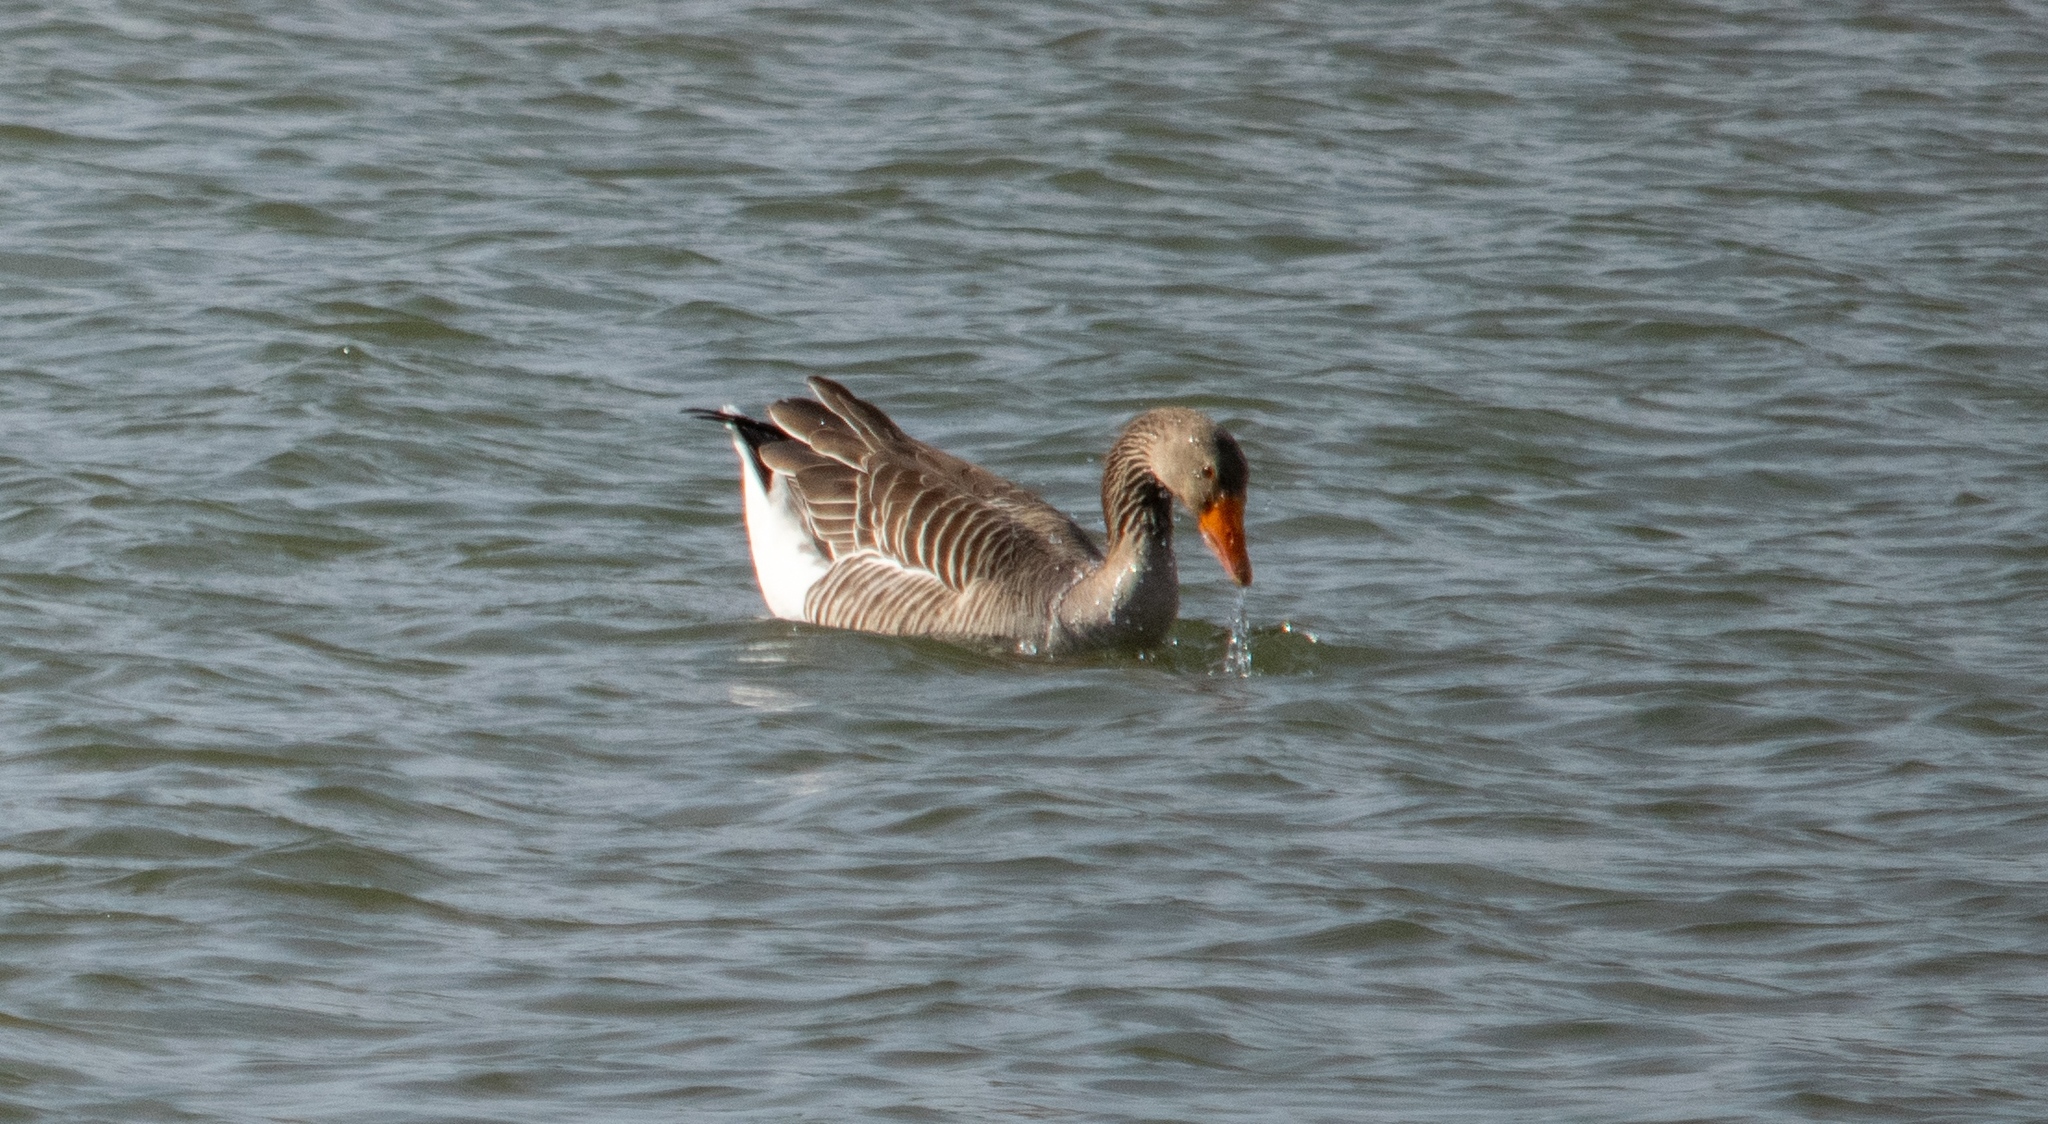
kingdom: Animalia
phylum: Chordata
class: Aves
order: Anseriformes
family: Anatidae
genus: Anser
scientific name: Anser anser
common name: Greylag goose
